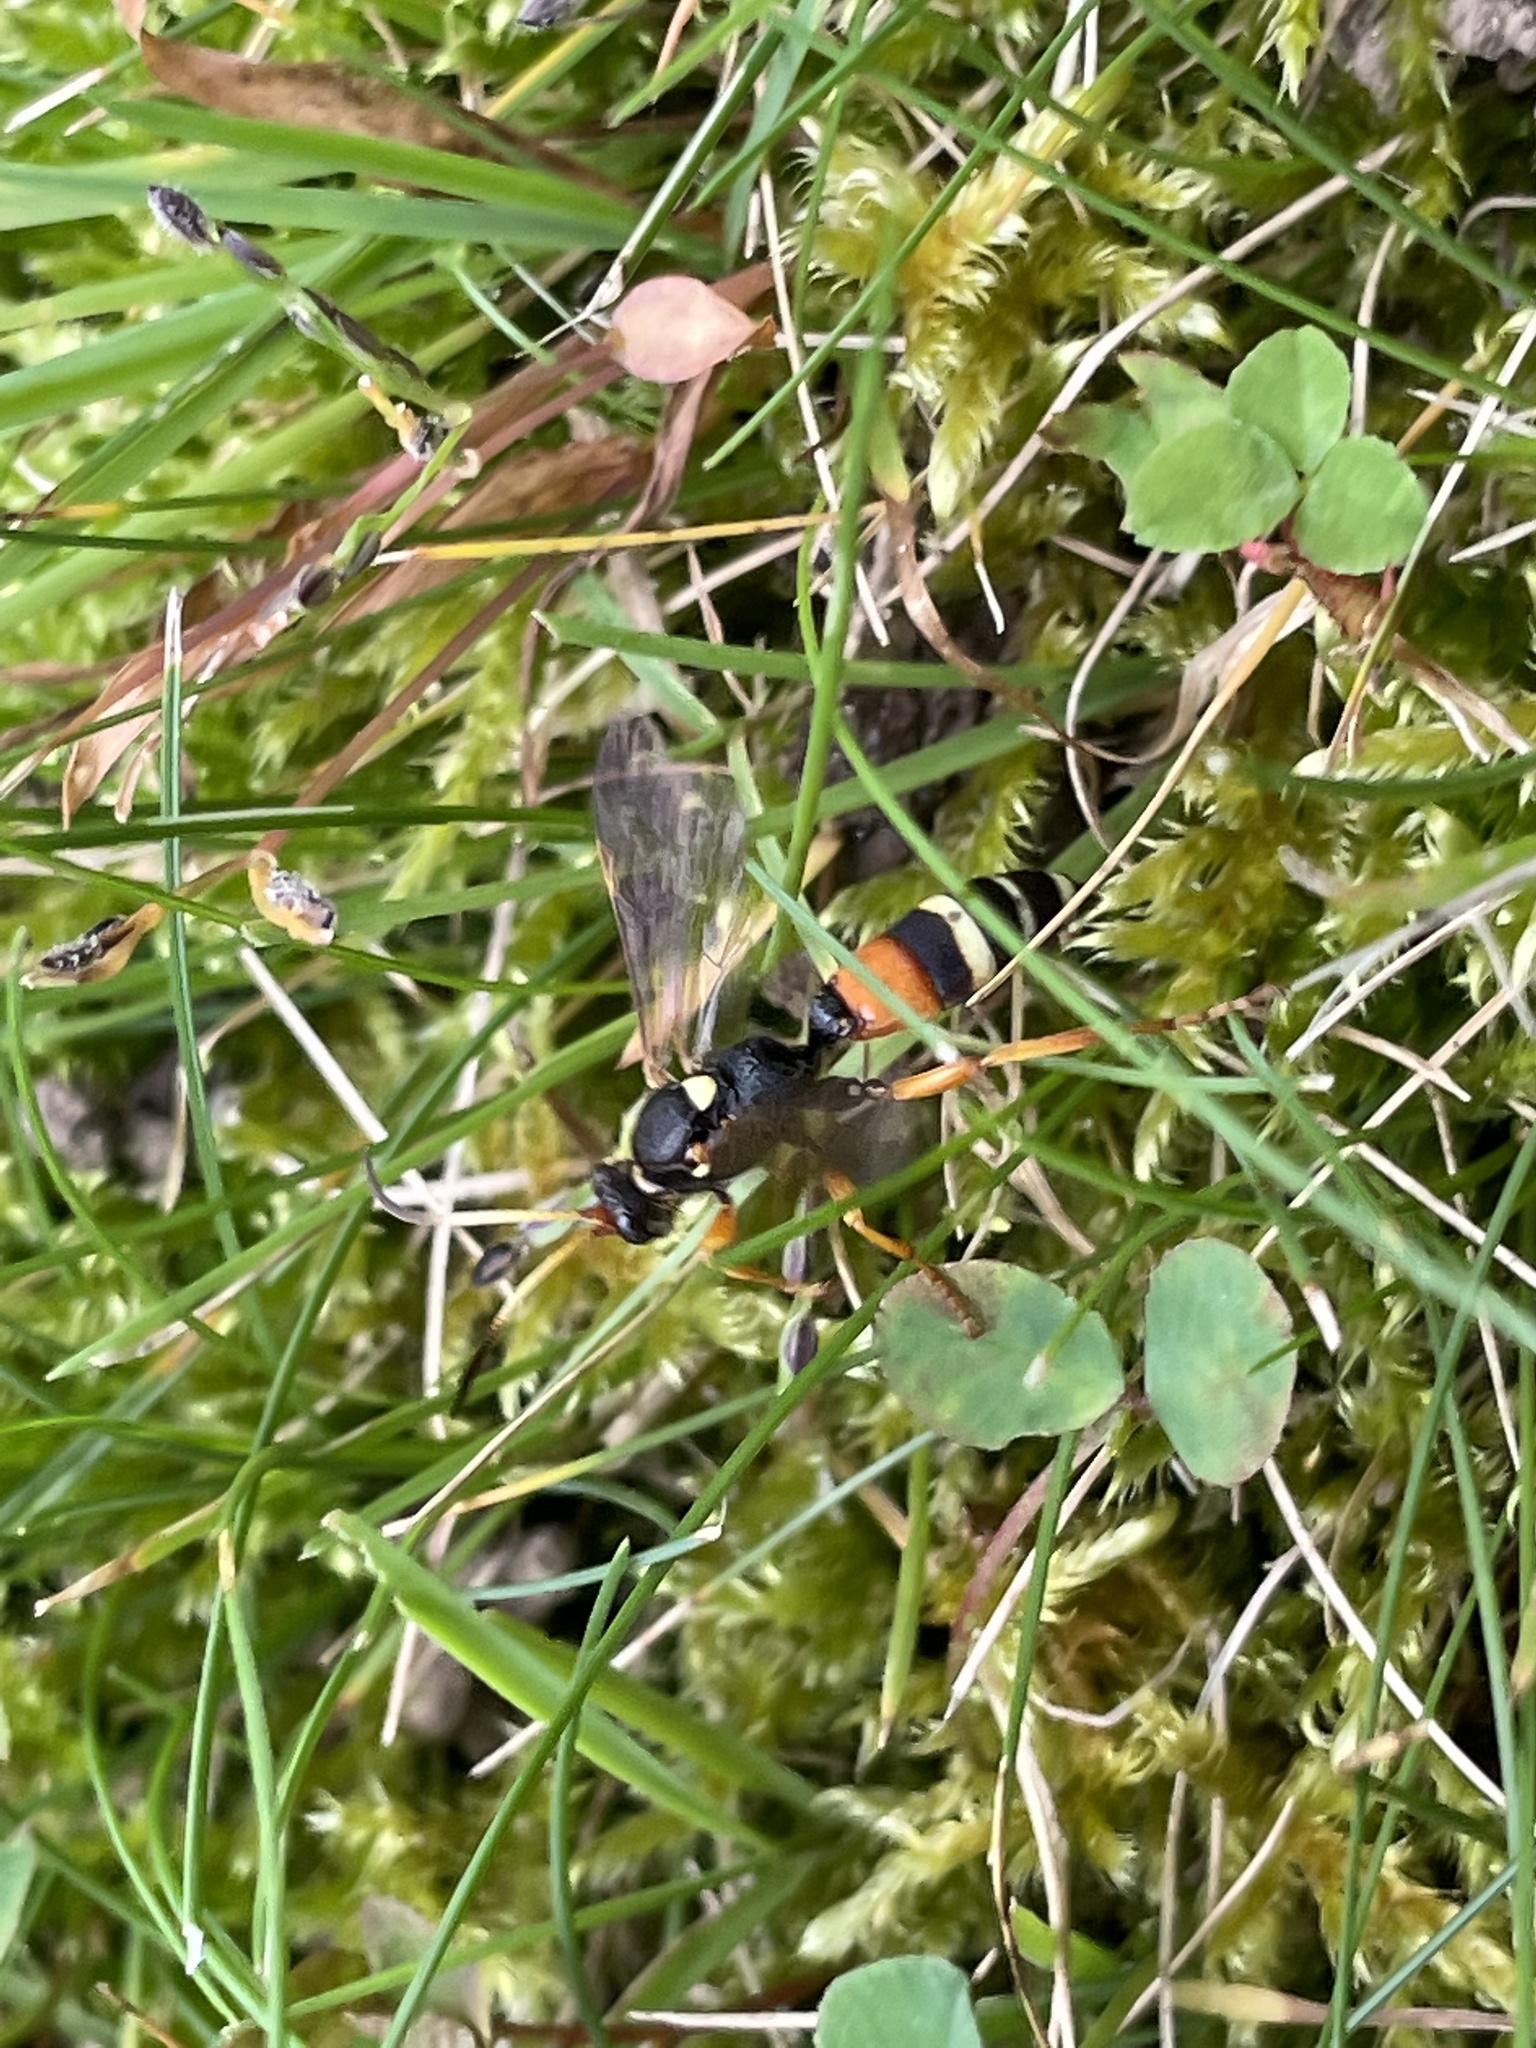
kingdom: Animalia
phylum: Arthropoda
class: Insecta
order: Hymenoptera
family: Ichneumonidae
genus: Ichneumon
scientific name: Ichneumon ambulatorius
